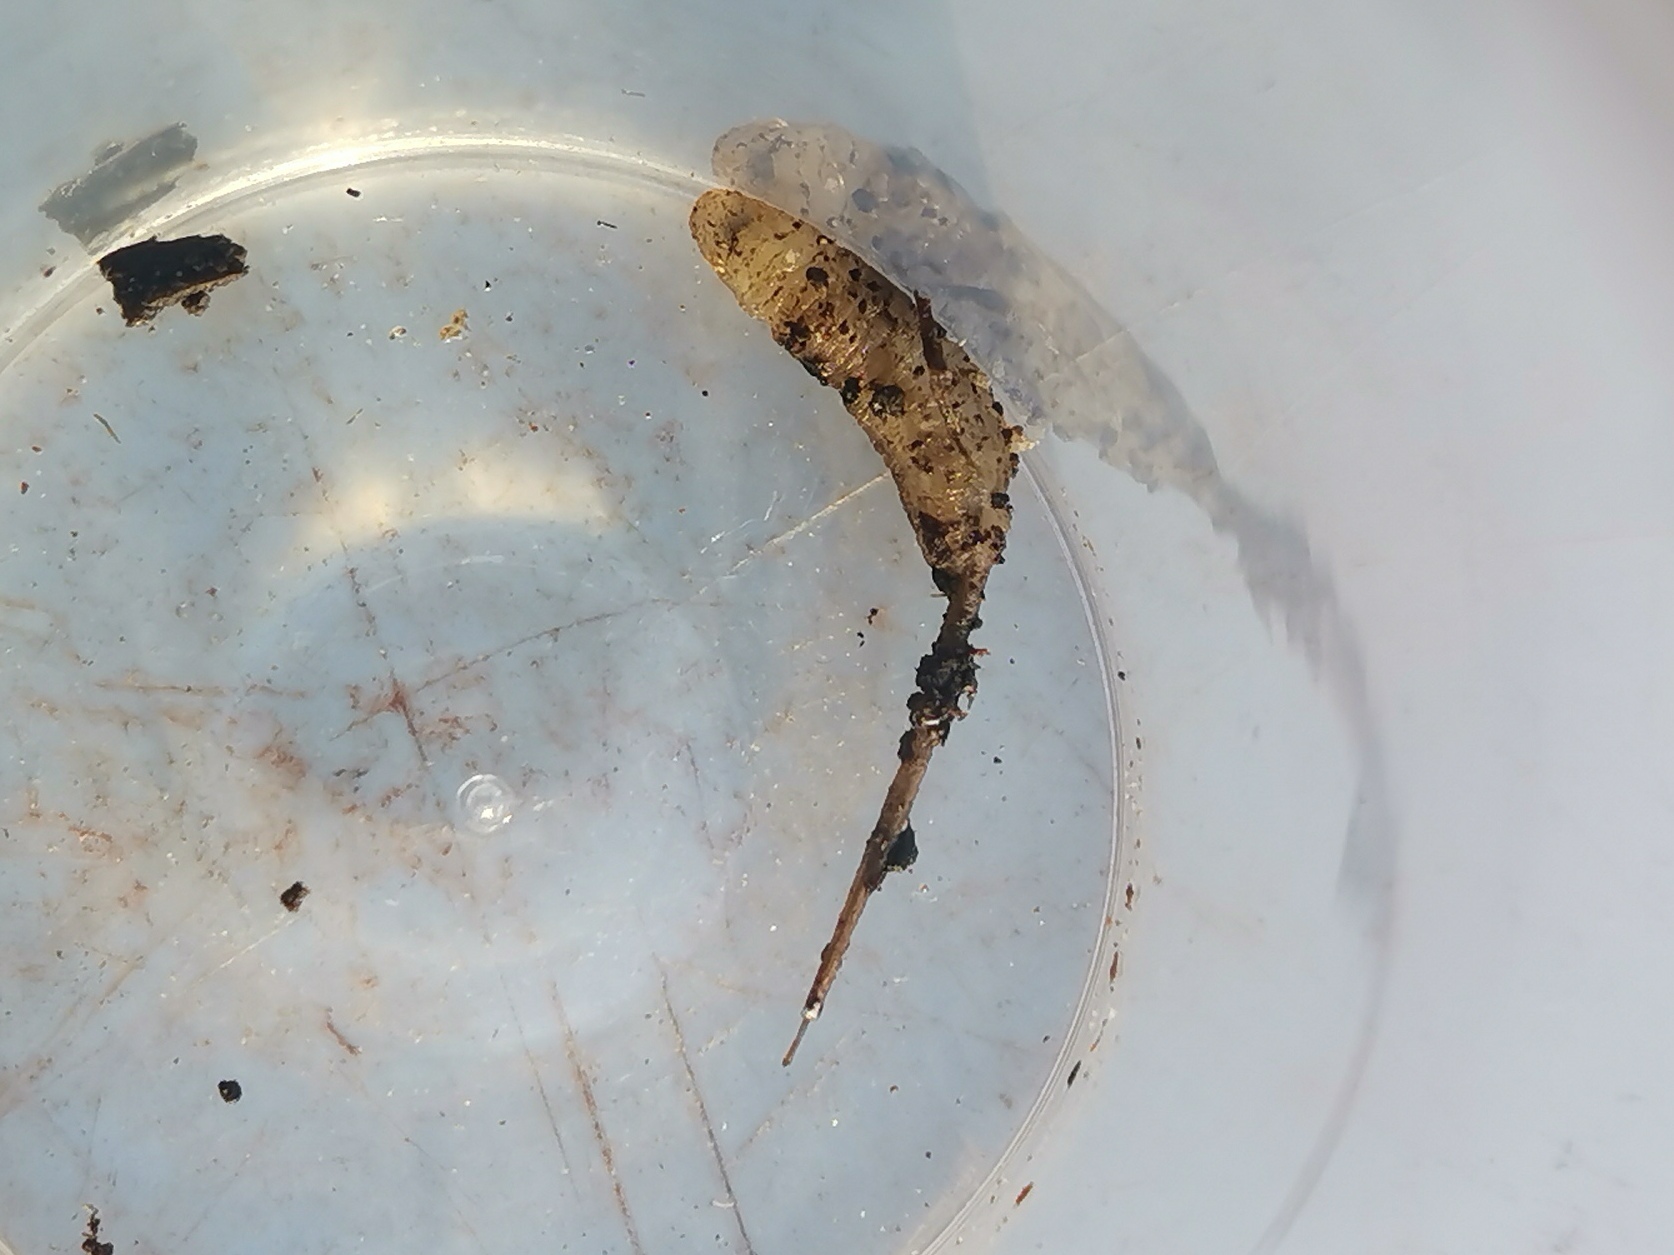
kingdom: Animalia
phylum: Arthropoda
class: Insecta
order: Diptera
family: Syrphidae
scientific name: Syrphidae
